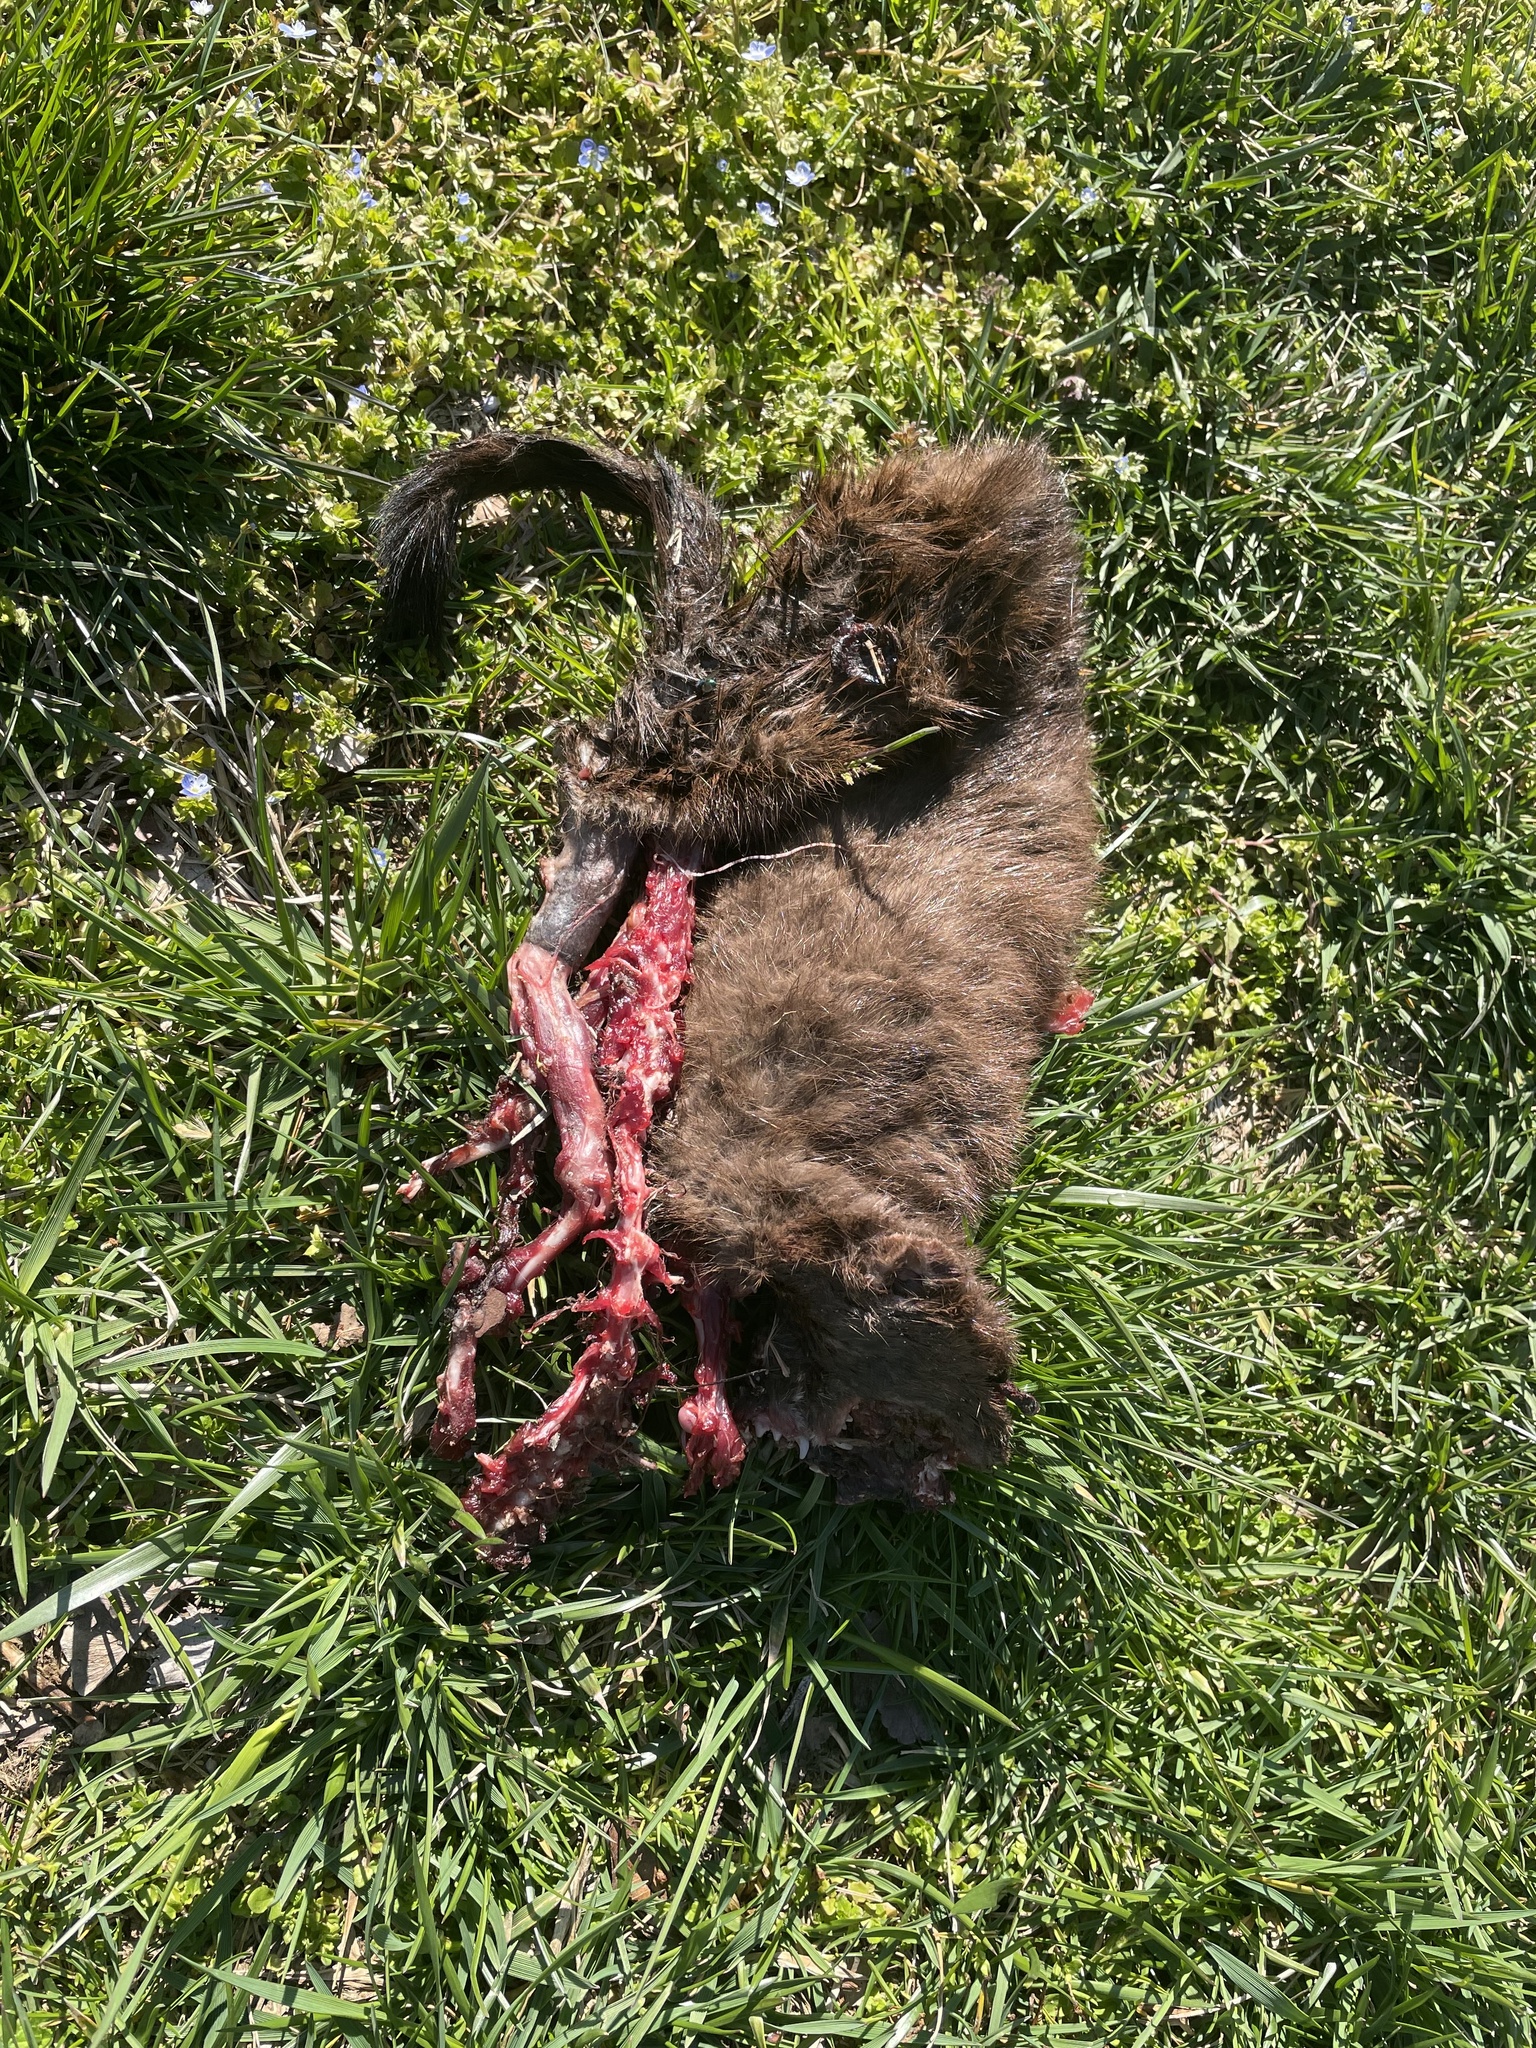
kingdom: Animalia
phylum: Chordata
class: Mammalia
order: Carnivora
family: Mustelidae
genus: Mustela
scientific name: Mustela
